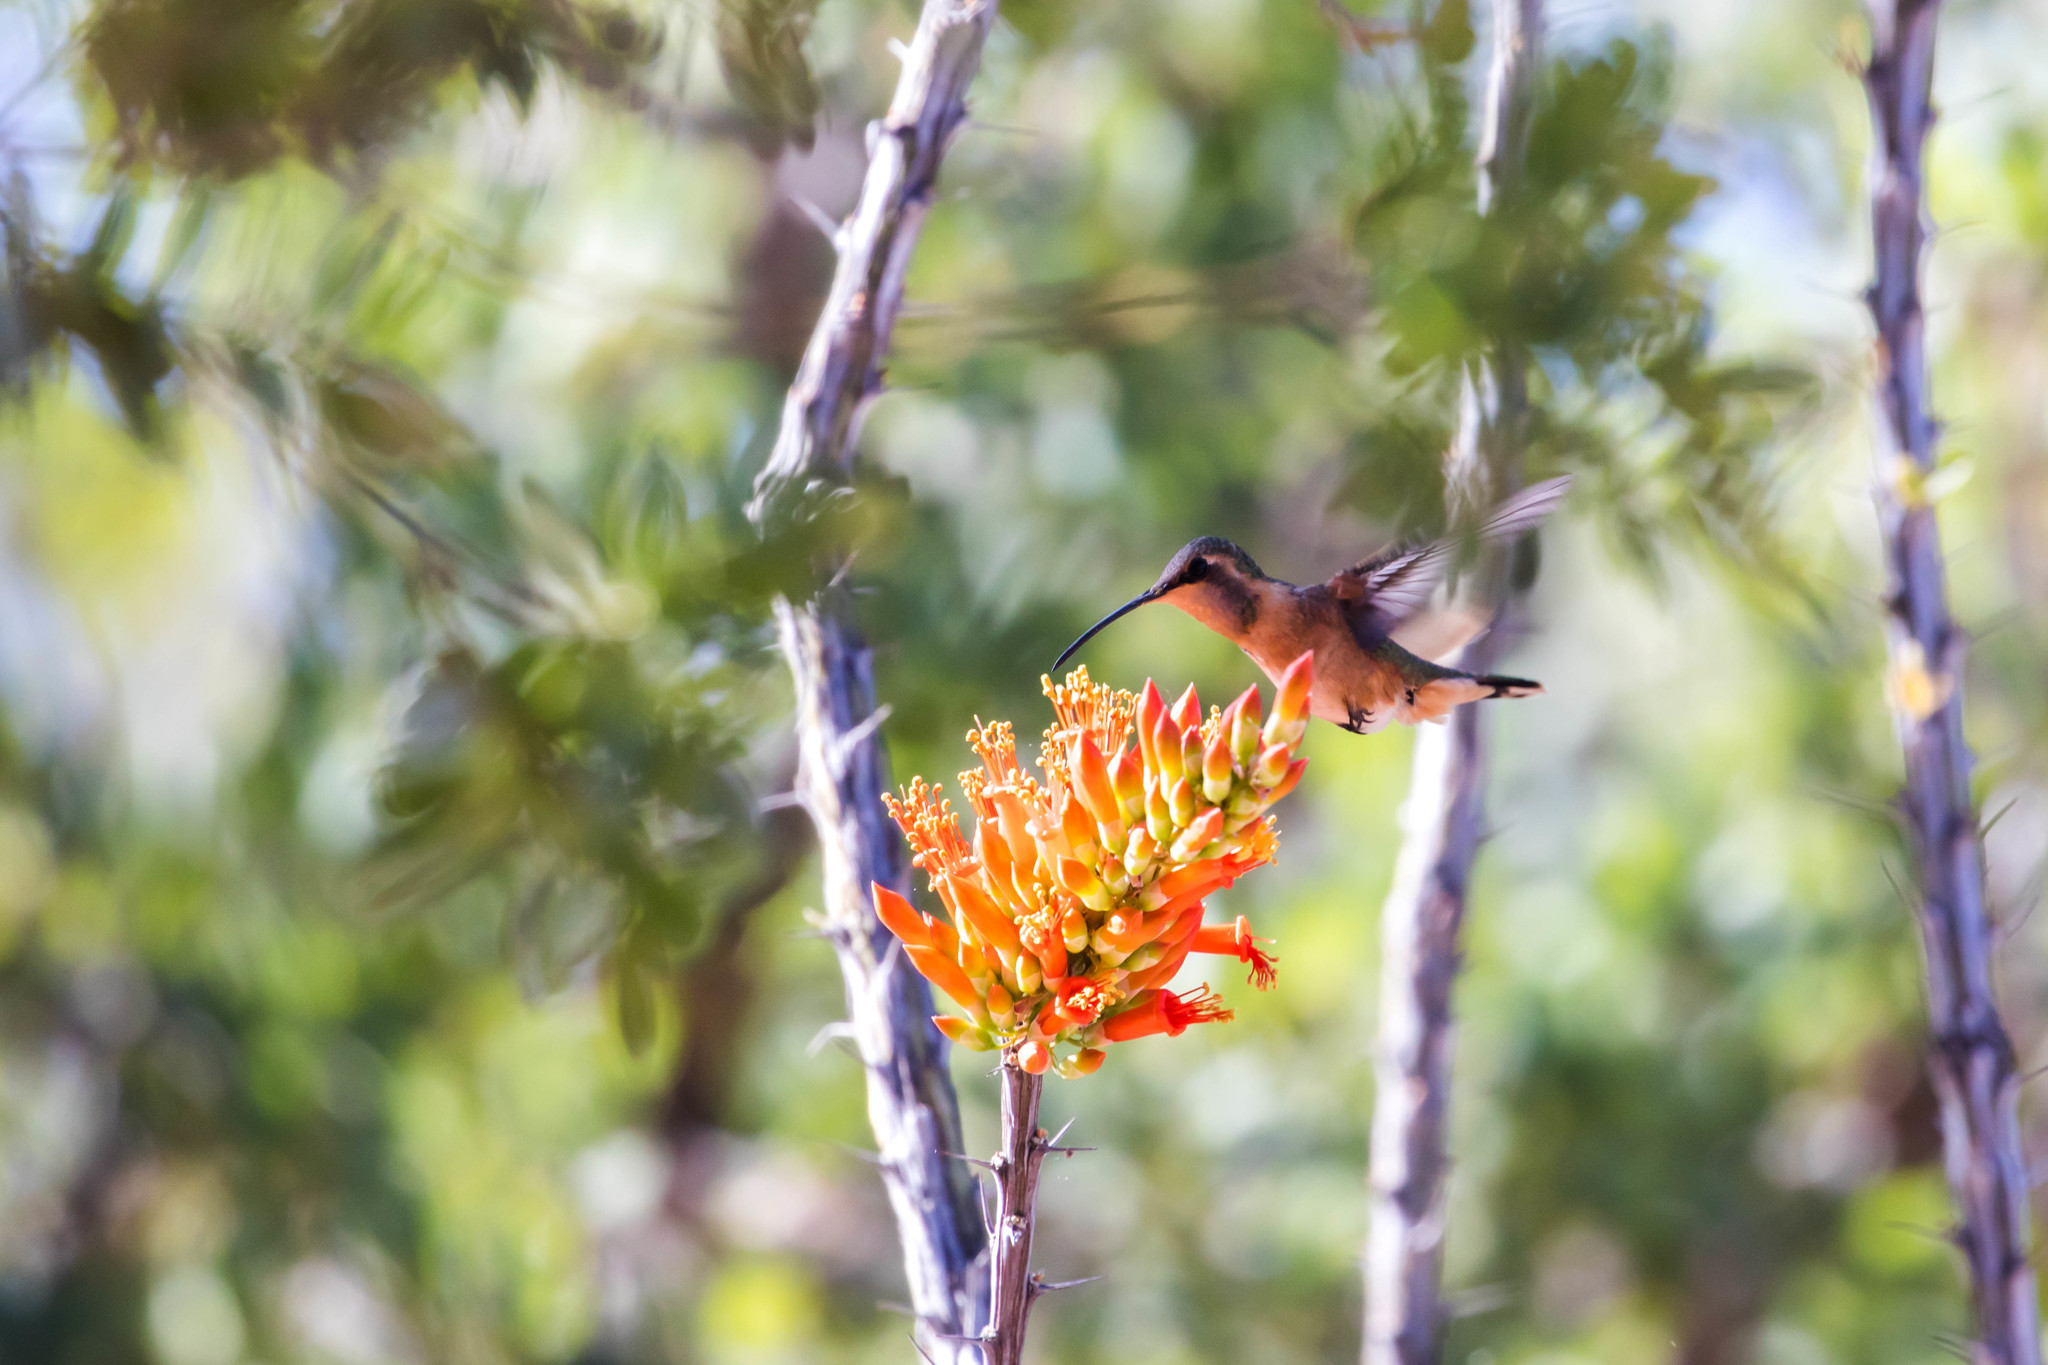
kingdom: Animalia
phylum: Chordata
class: Aves
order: Apodiformes
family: Trochilidae
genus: Calothorax
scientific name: Calothorax lucifer
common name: Lucifer sheartail
